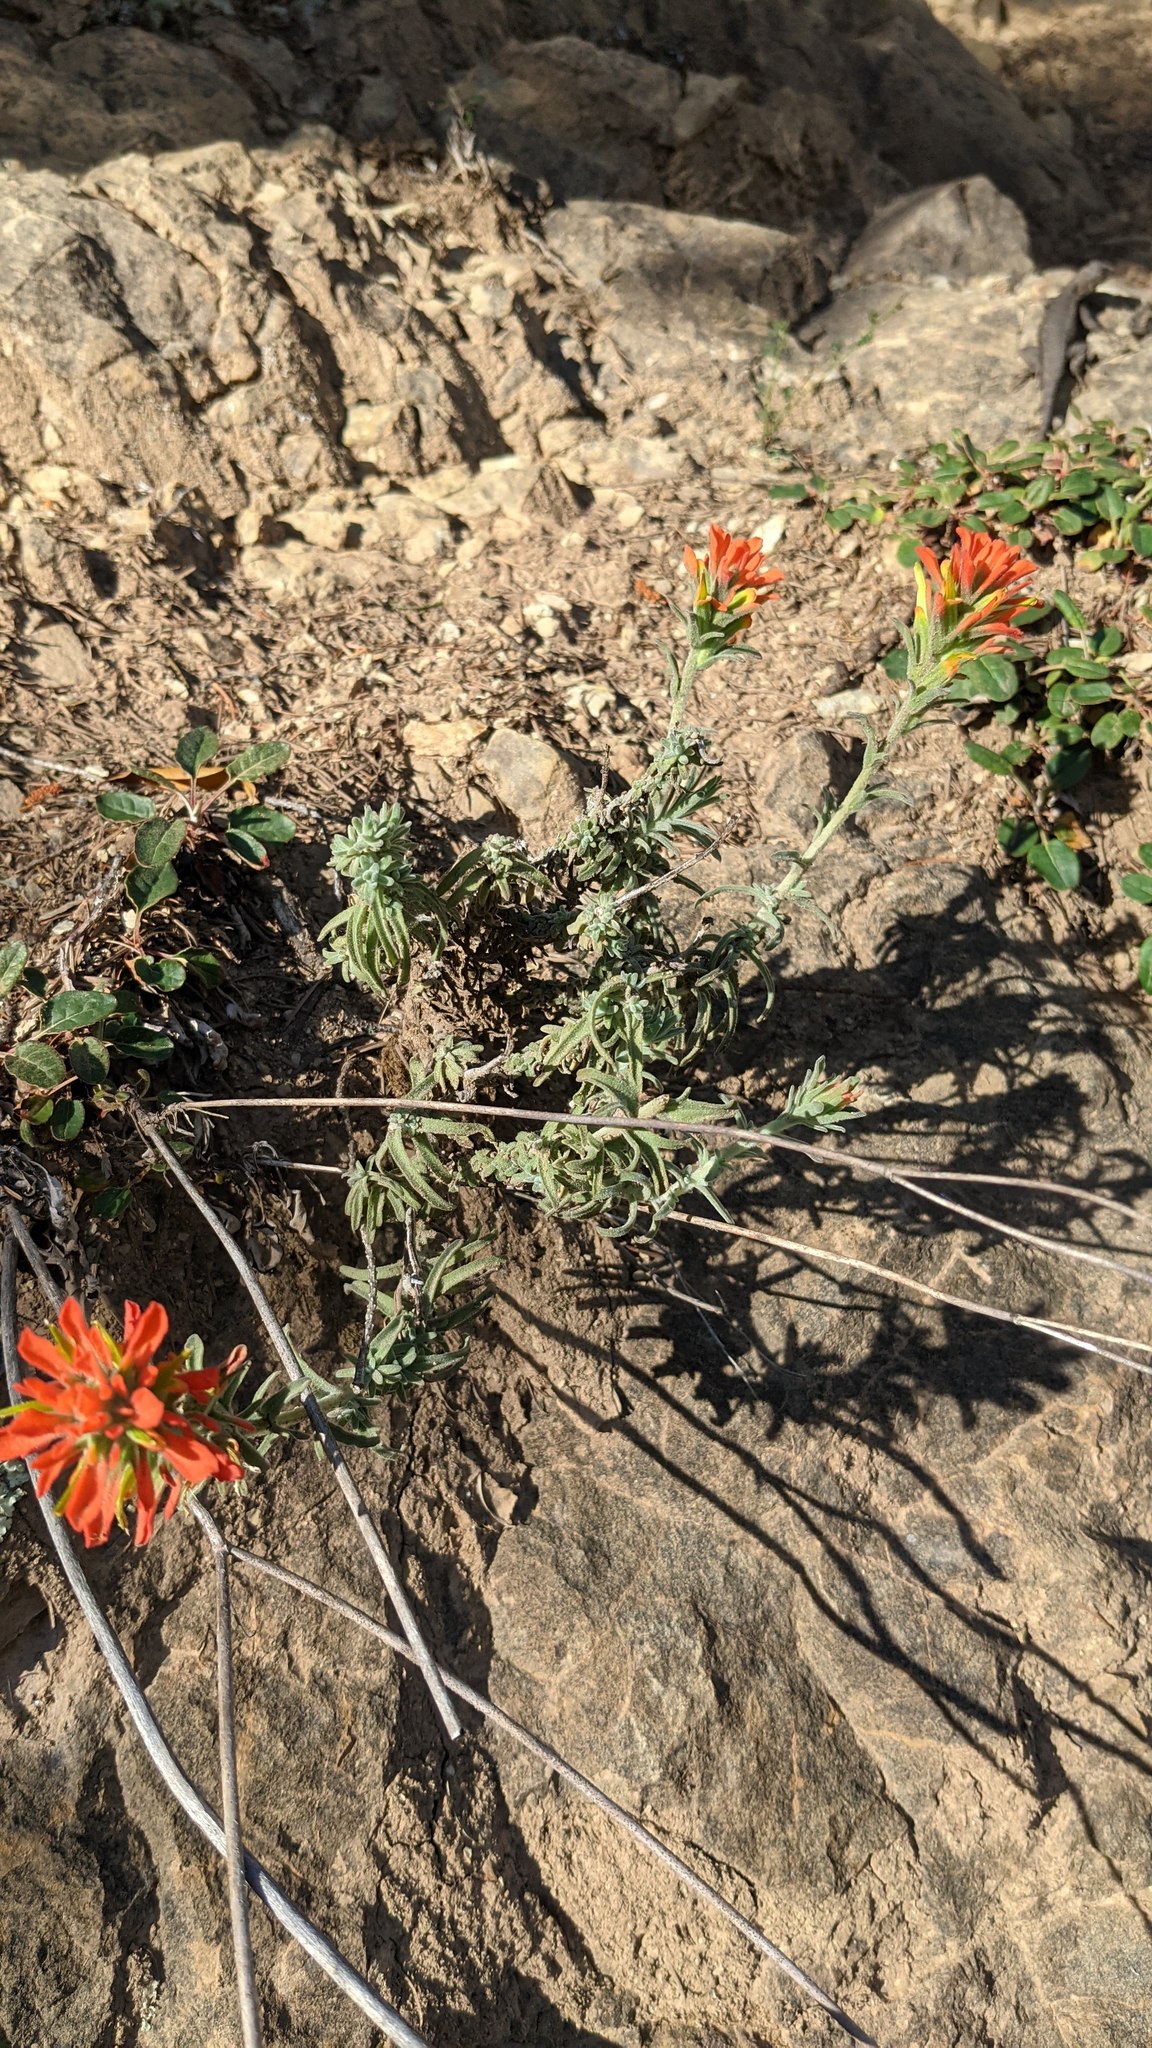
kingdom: Plantae
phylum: Tracheophyta
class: Magnoliopsida
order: Lamiales
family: Orobanchaceae
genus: Castilleja
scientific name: Castilleja foliolosa
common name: Woolly indian paintbrush
